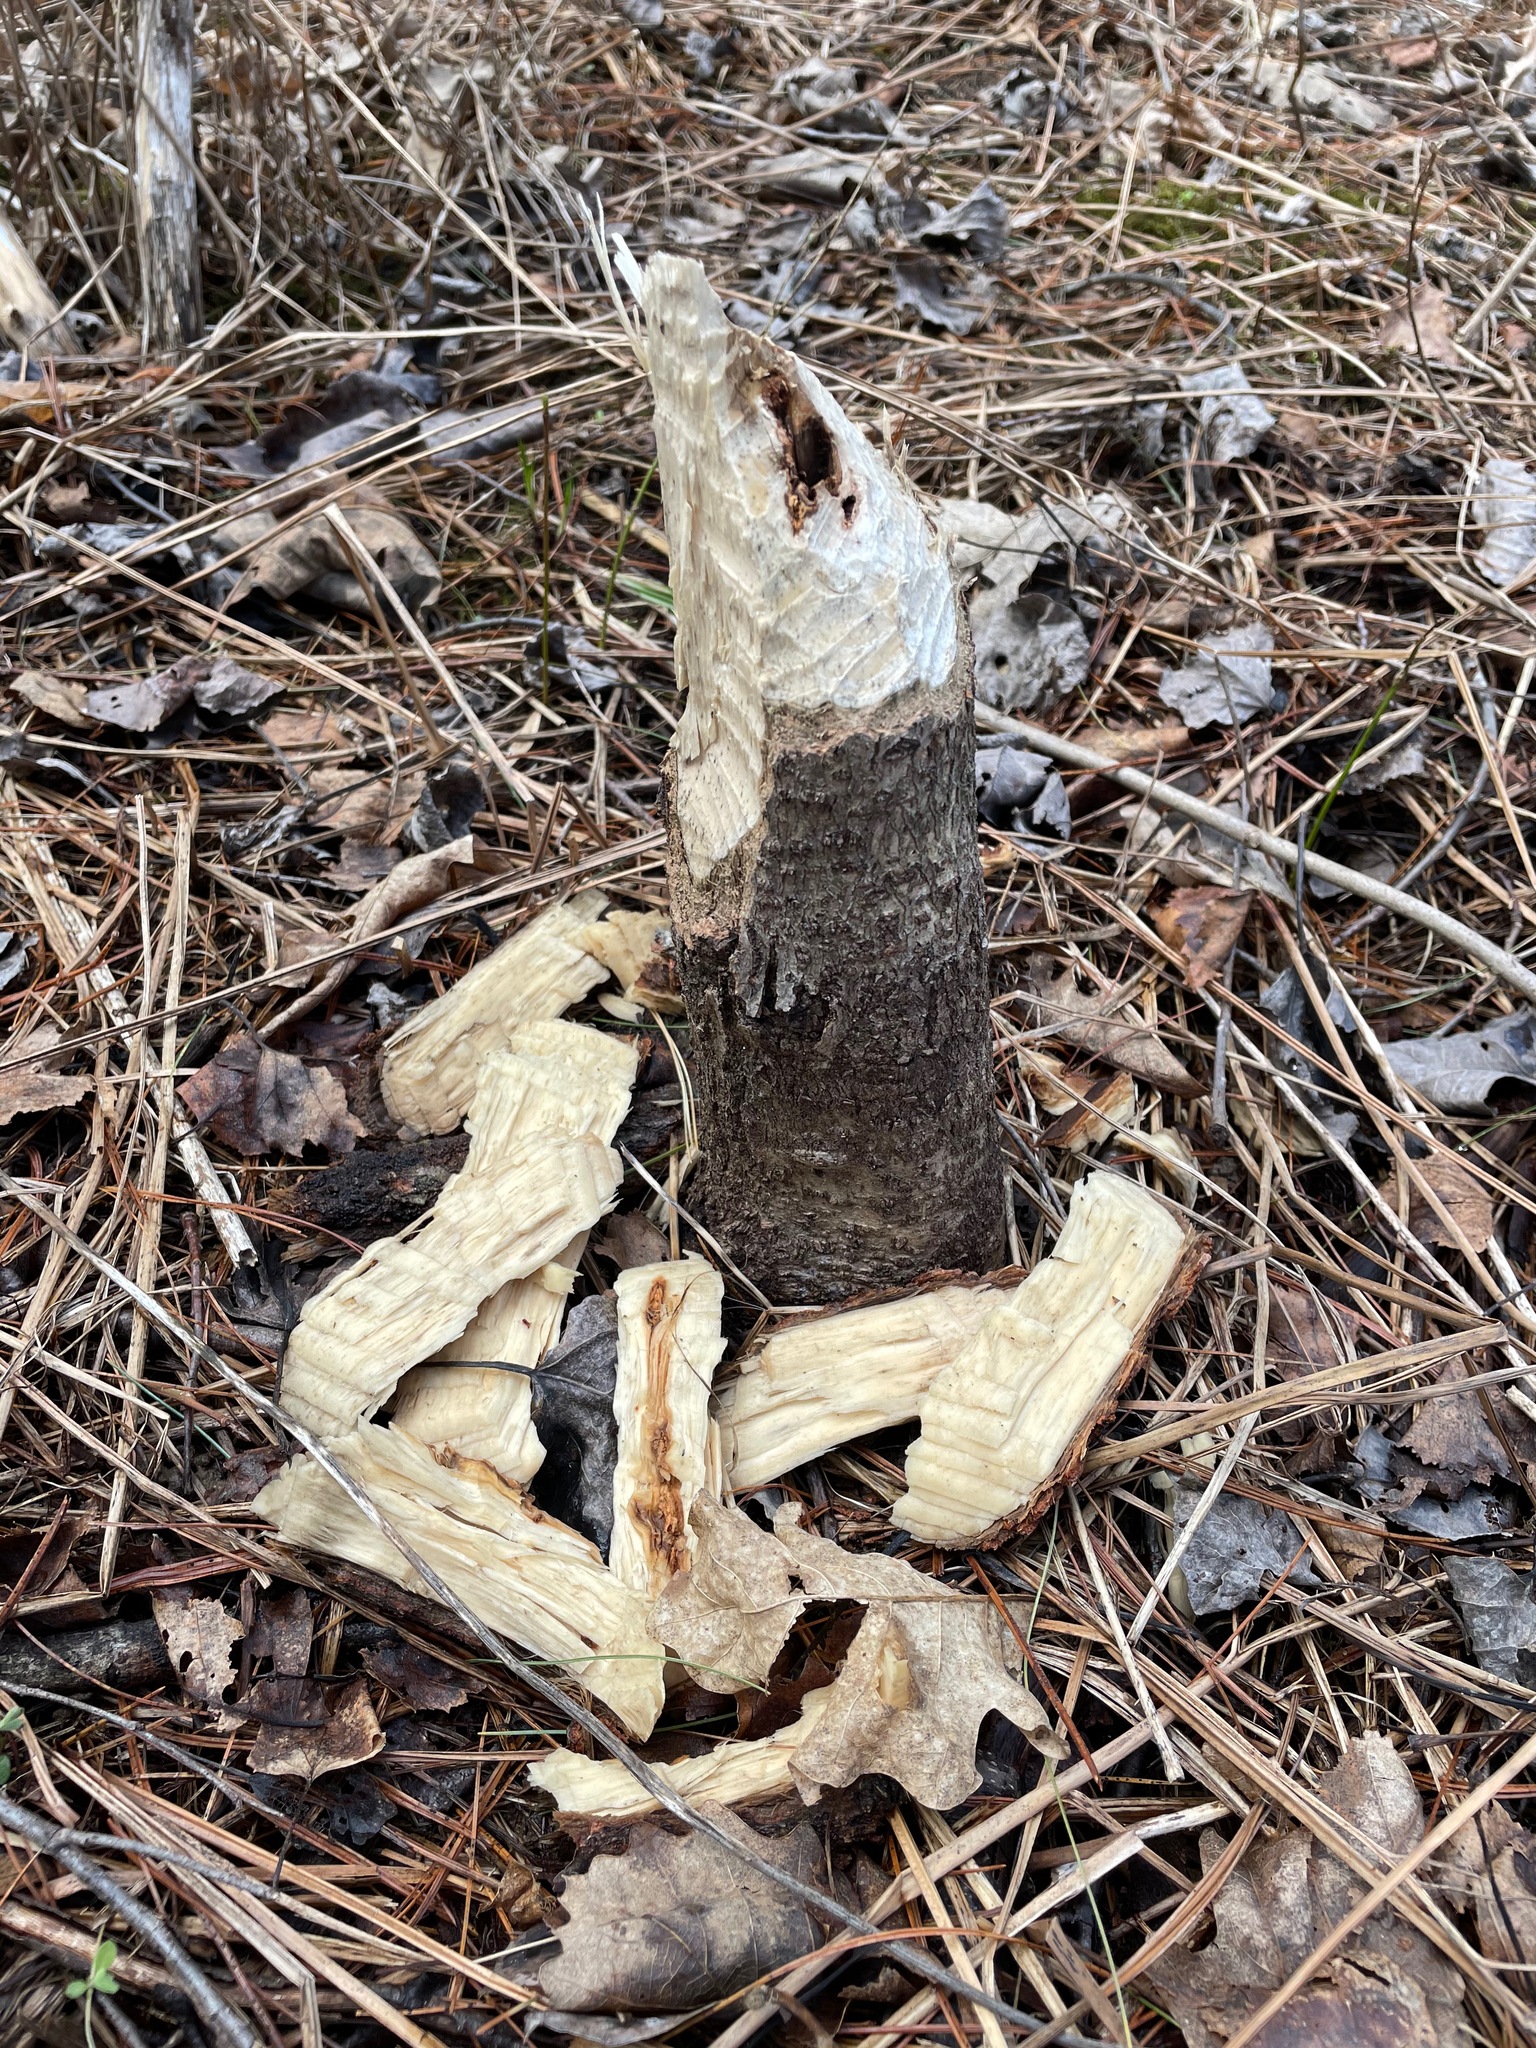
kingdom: Animalia
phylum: Chordata
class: Mammalia
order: Rodentia
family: Castoridae
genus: Castor
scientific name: Castor canadensis
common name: American beaver
